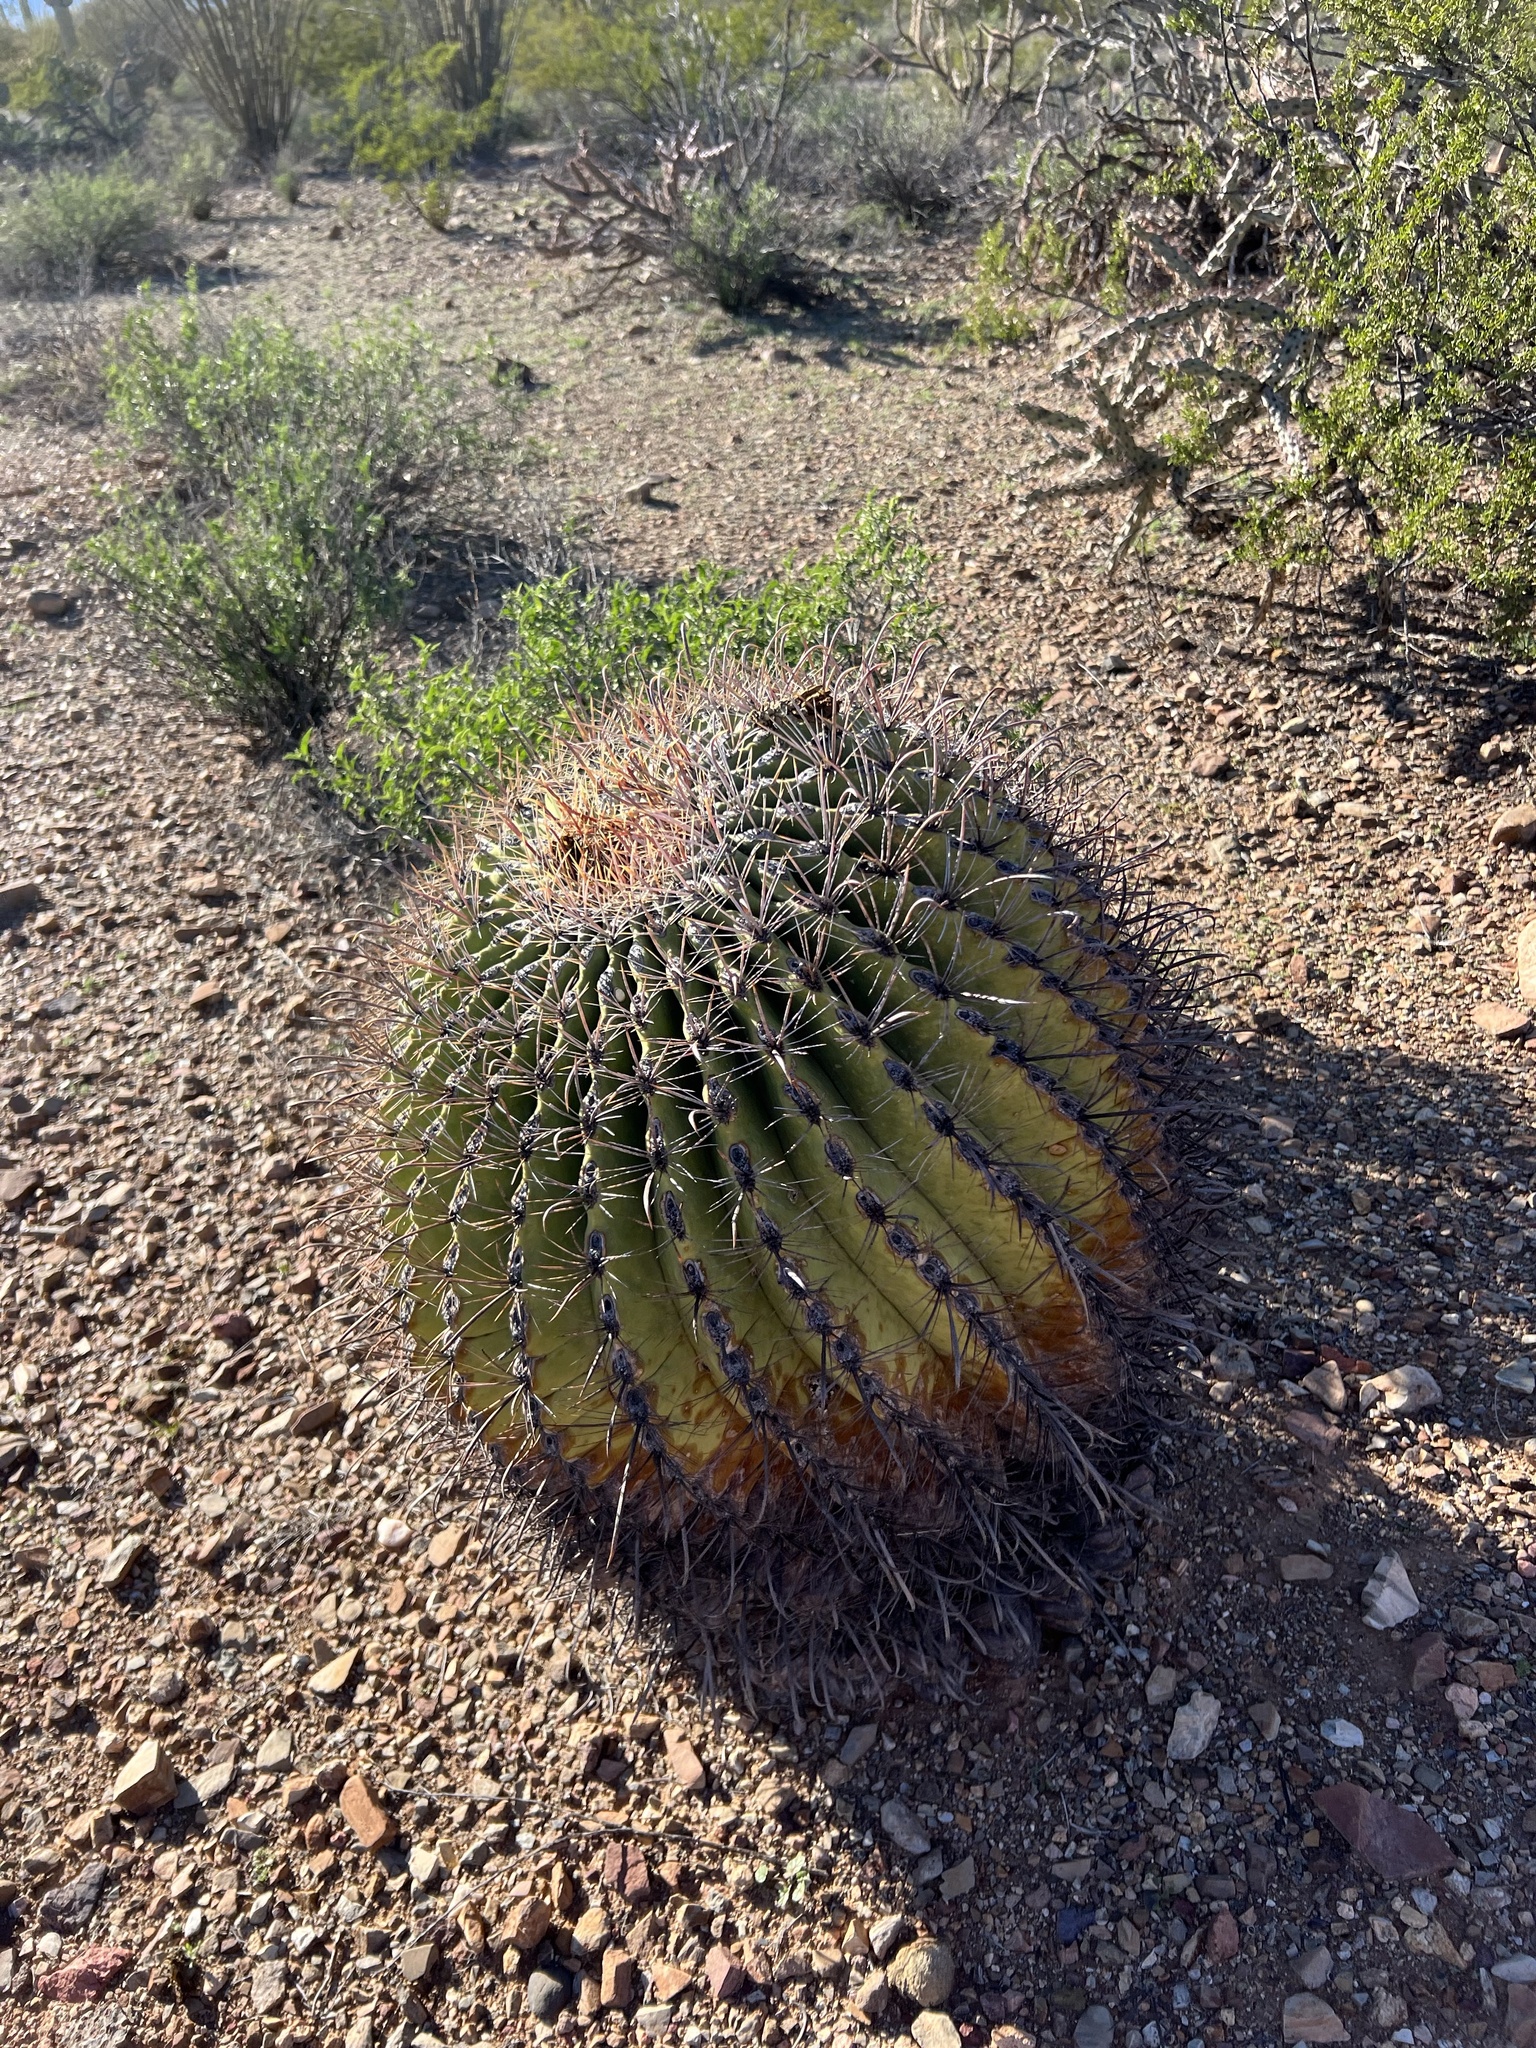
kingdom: Plantae
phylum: Tracheophyta
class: Magnoliopsida
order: Caryophyllales
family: Cactaceae
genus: Ferocactus
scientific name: Ferocactus wislizeni
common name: Candy barrel cactus
